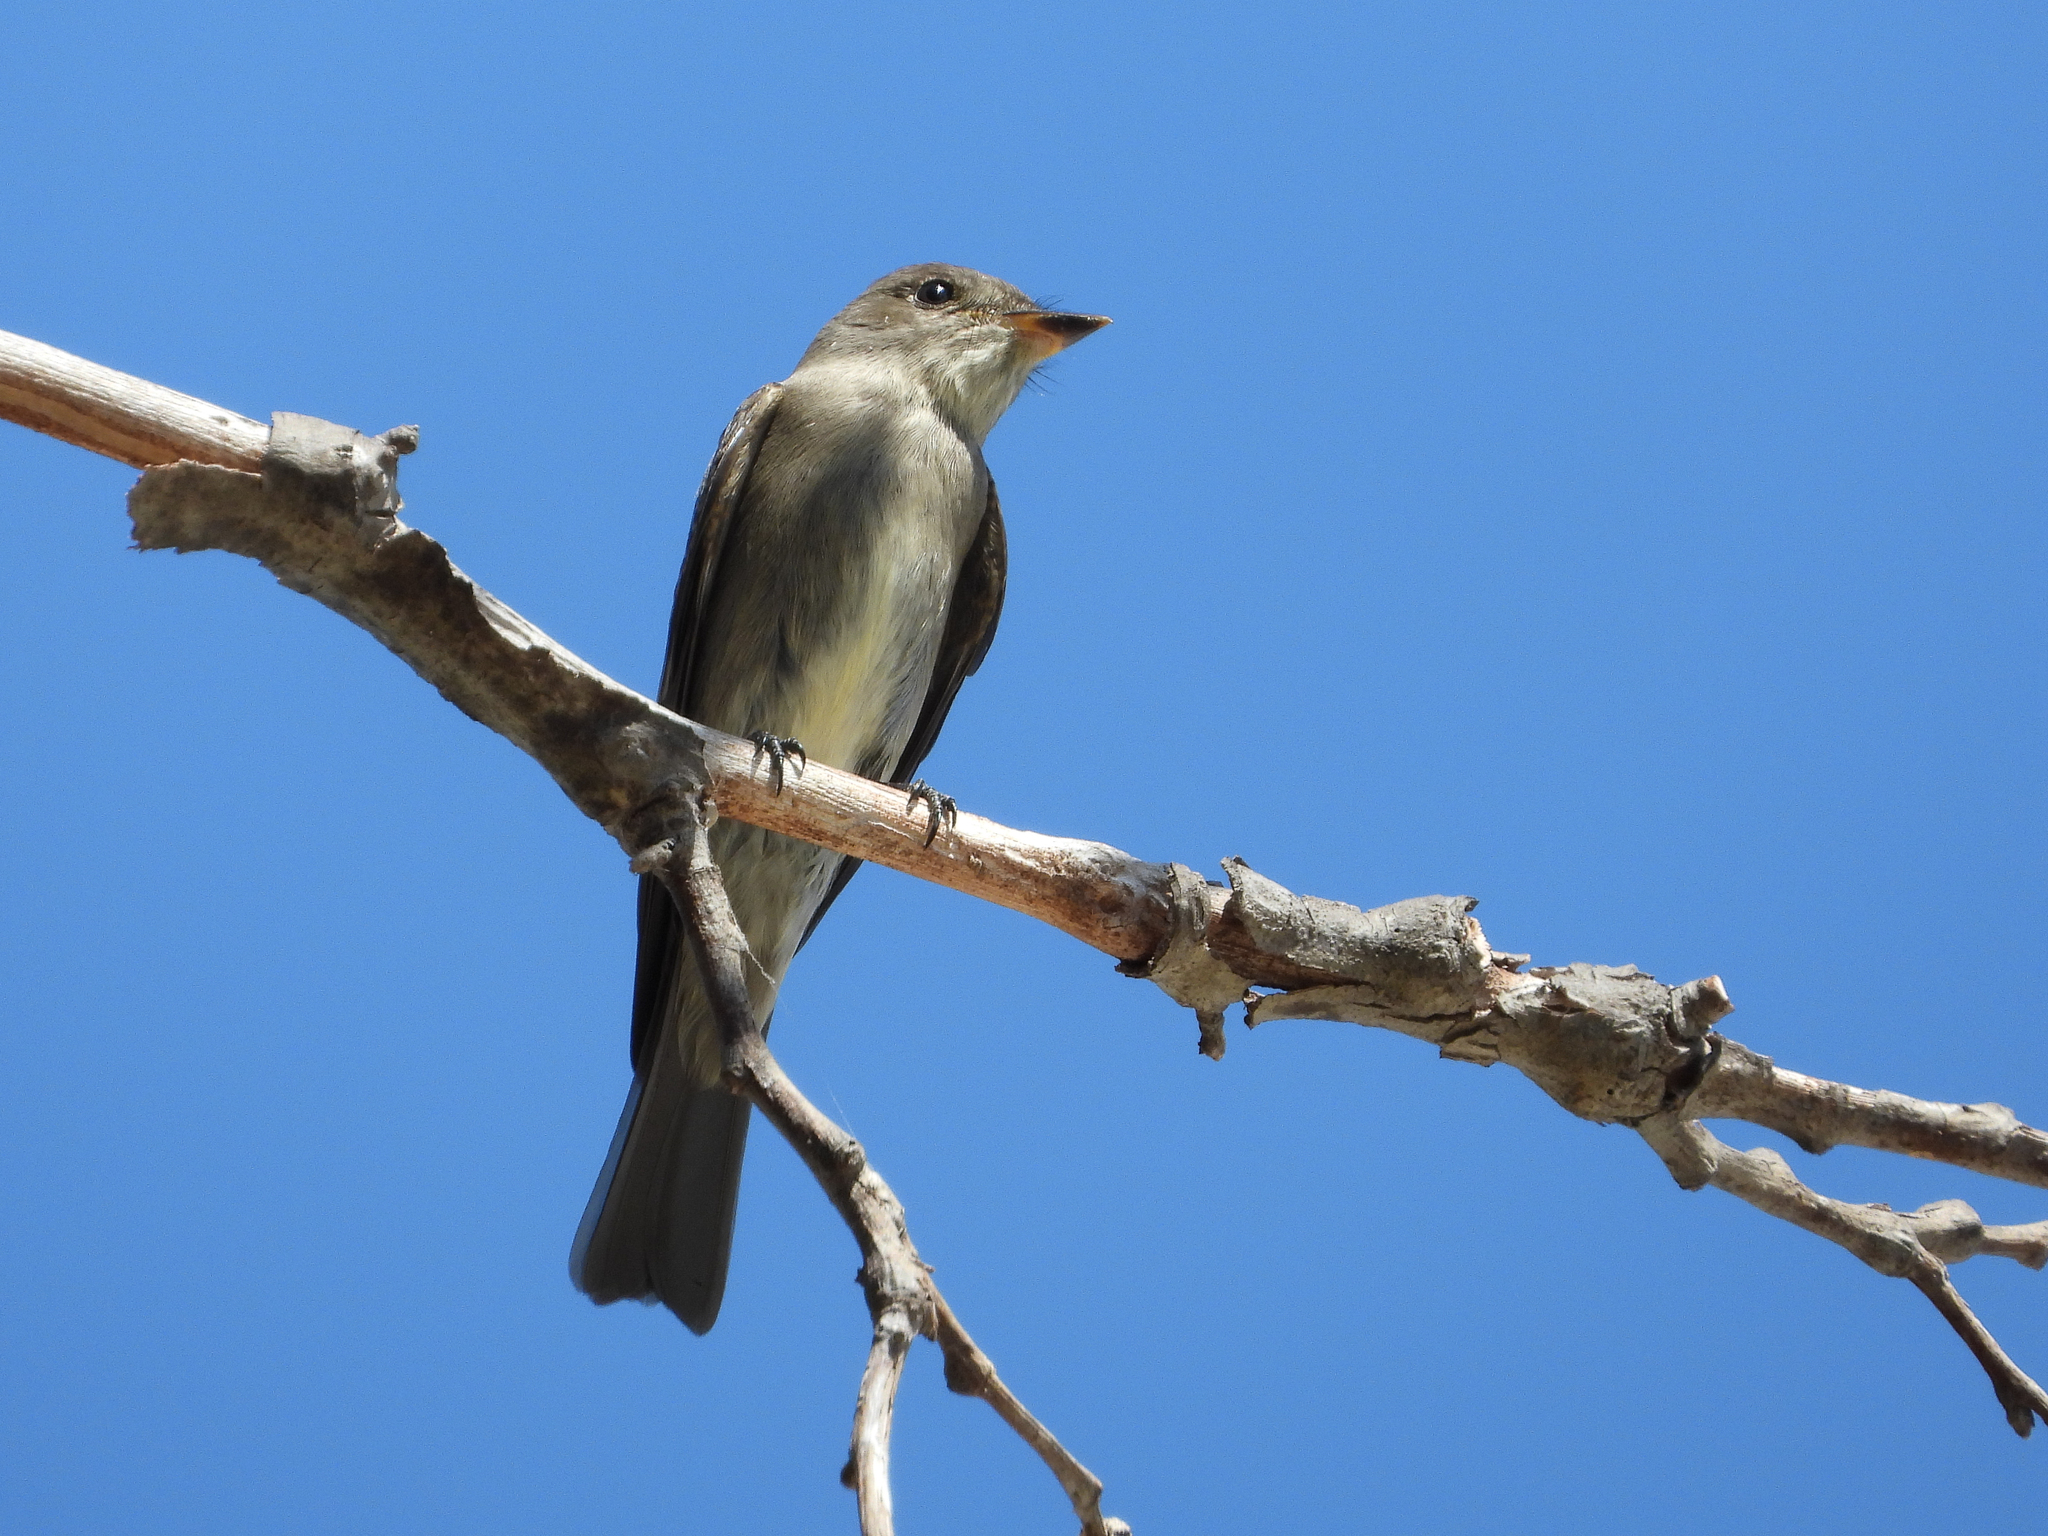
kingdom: Animalia
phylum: Chordata
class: Aves
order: Passeriformes
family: Tyrannidae
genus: Contopus
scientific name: Contopus sordidulus
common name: Western wood-pewee
